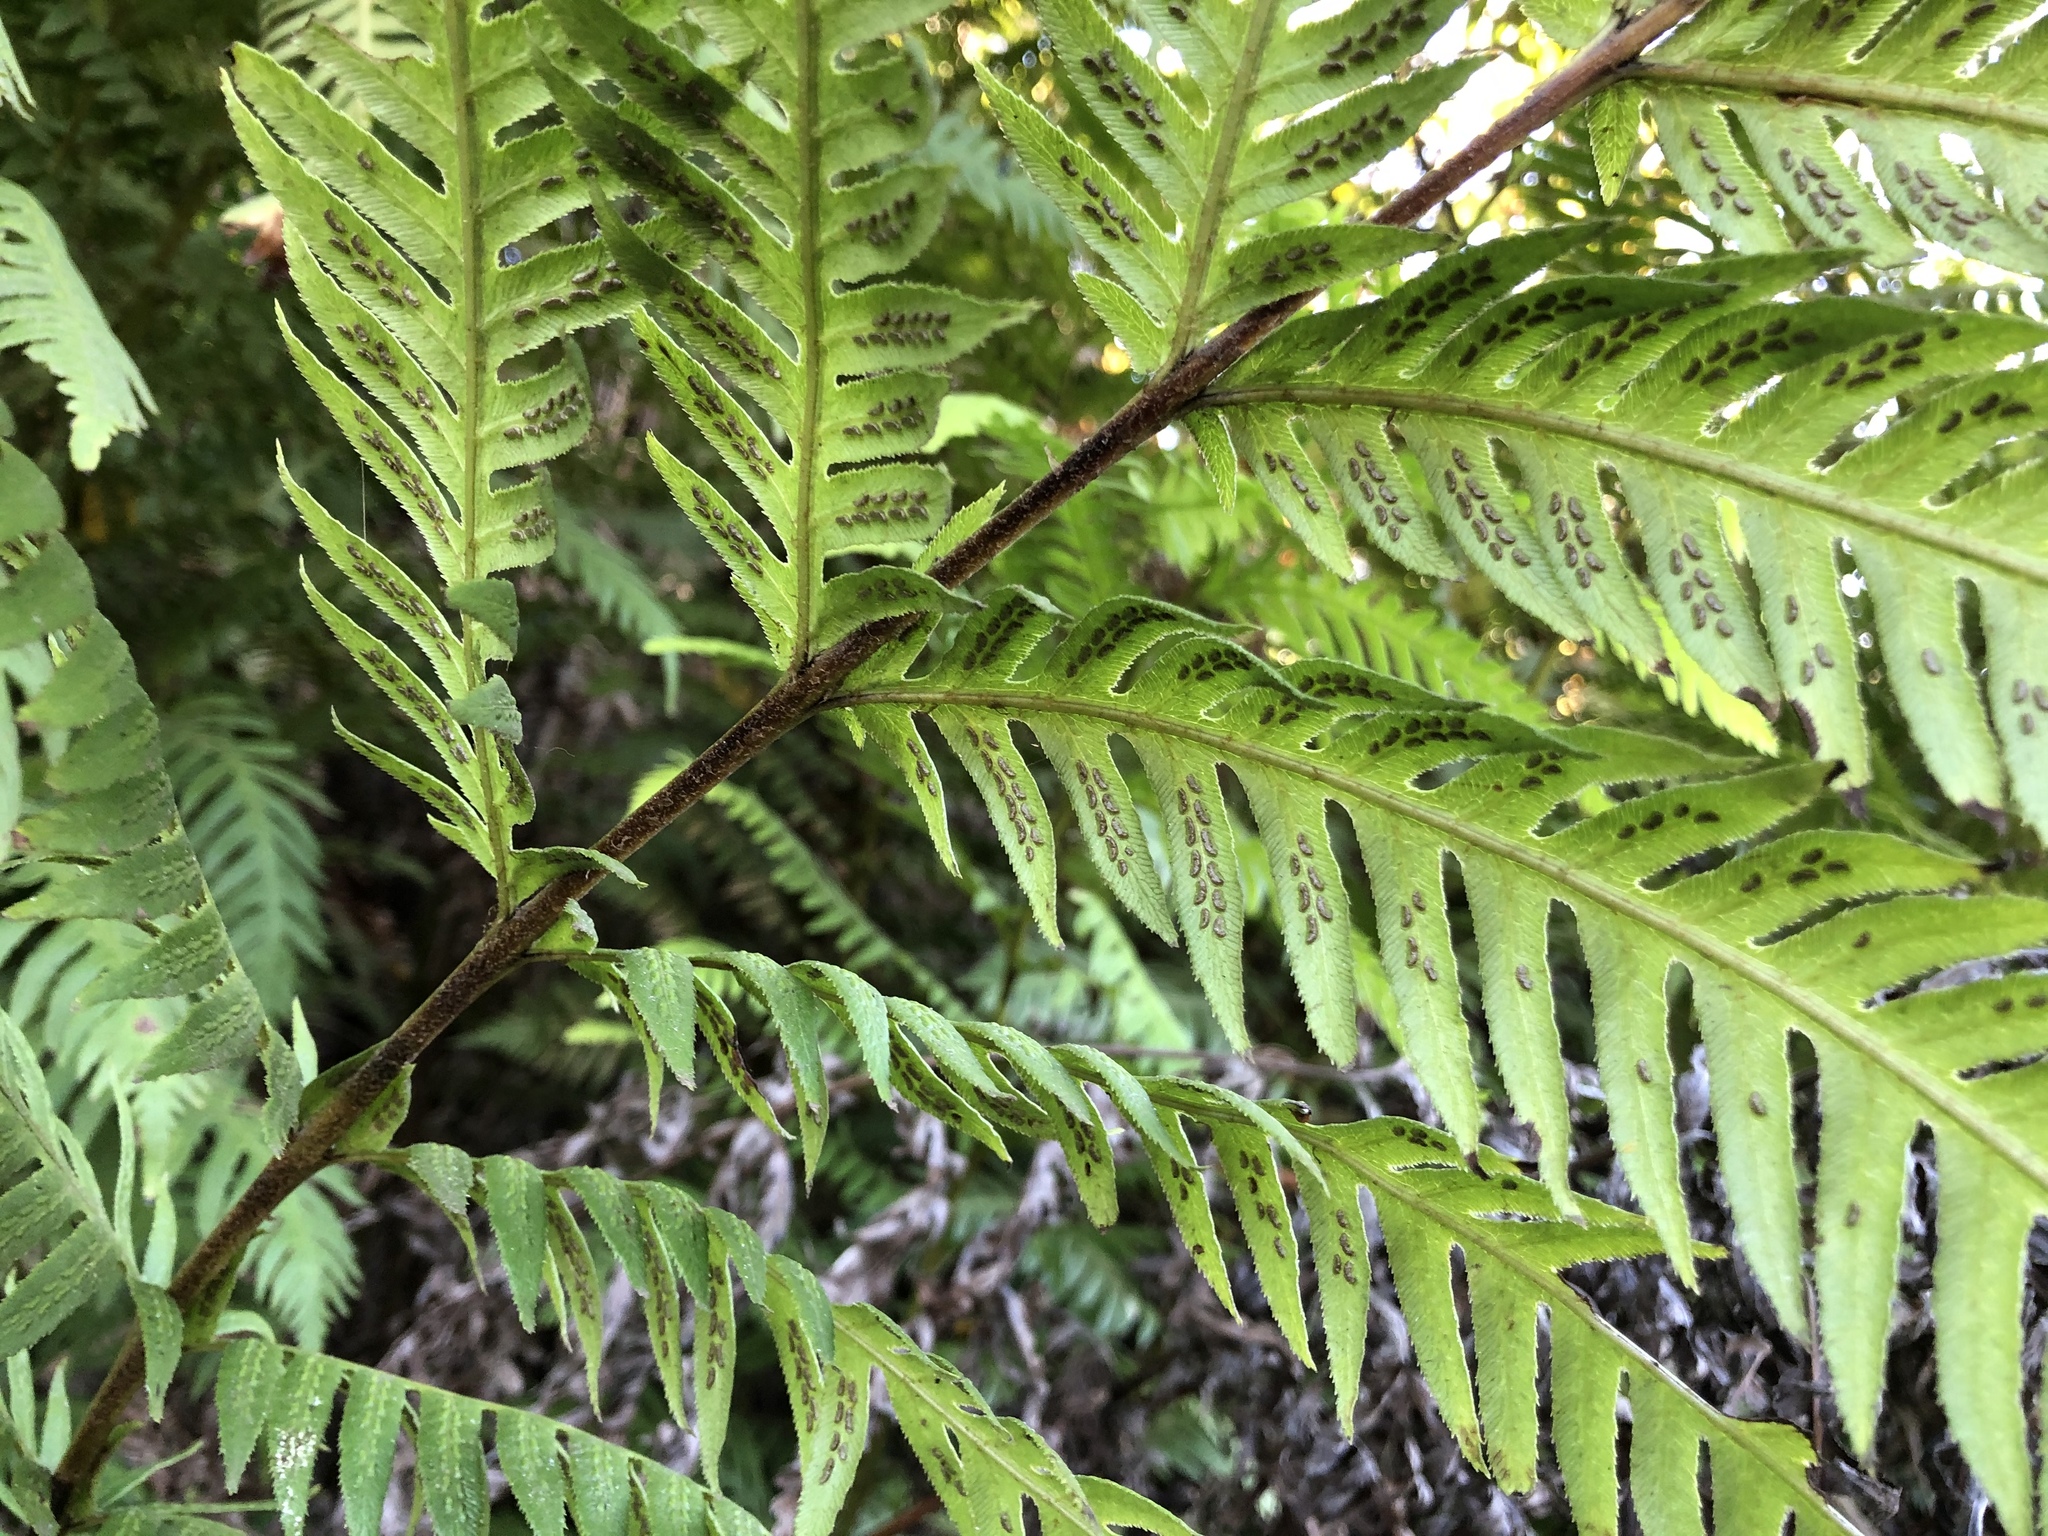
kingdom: Plantae
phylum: Tracheophyta
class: Polypodiopsida
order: Polypodiales
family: Blechnaceae
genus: Woodwardia
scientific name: Woodwardia fimbriata
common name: Giant chain fern
